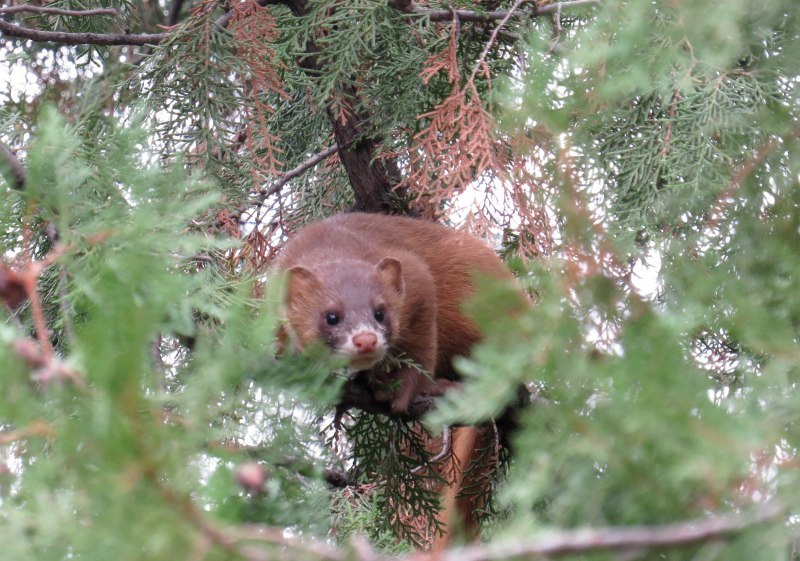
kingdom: Animalia
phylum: Chordata
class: Mammalia
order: Carnivora
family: Mustelidae
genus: Mustela
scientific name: Mustela sibirica
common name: Siberian weasel
